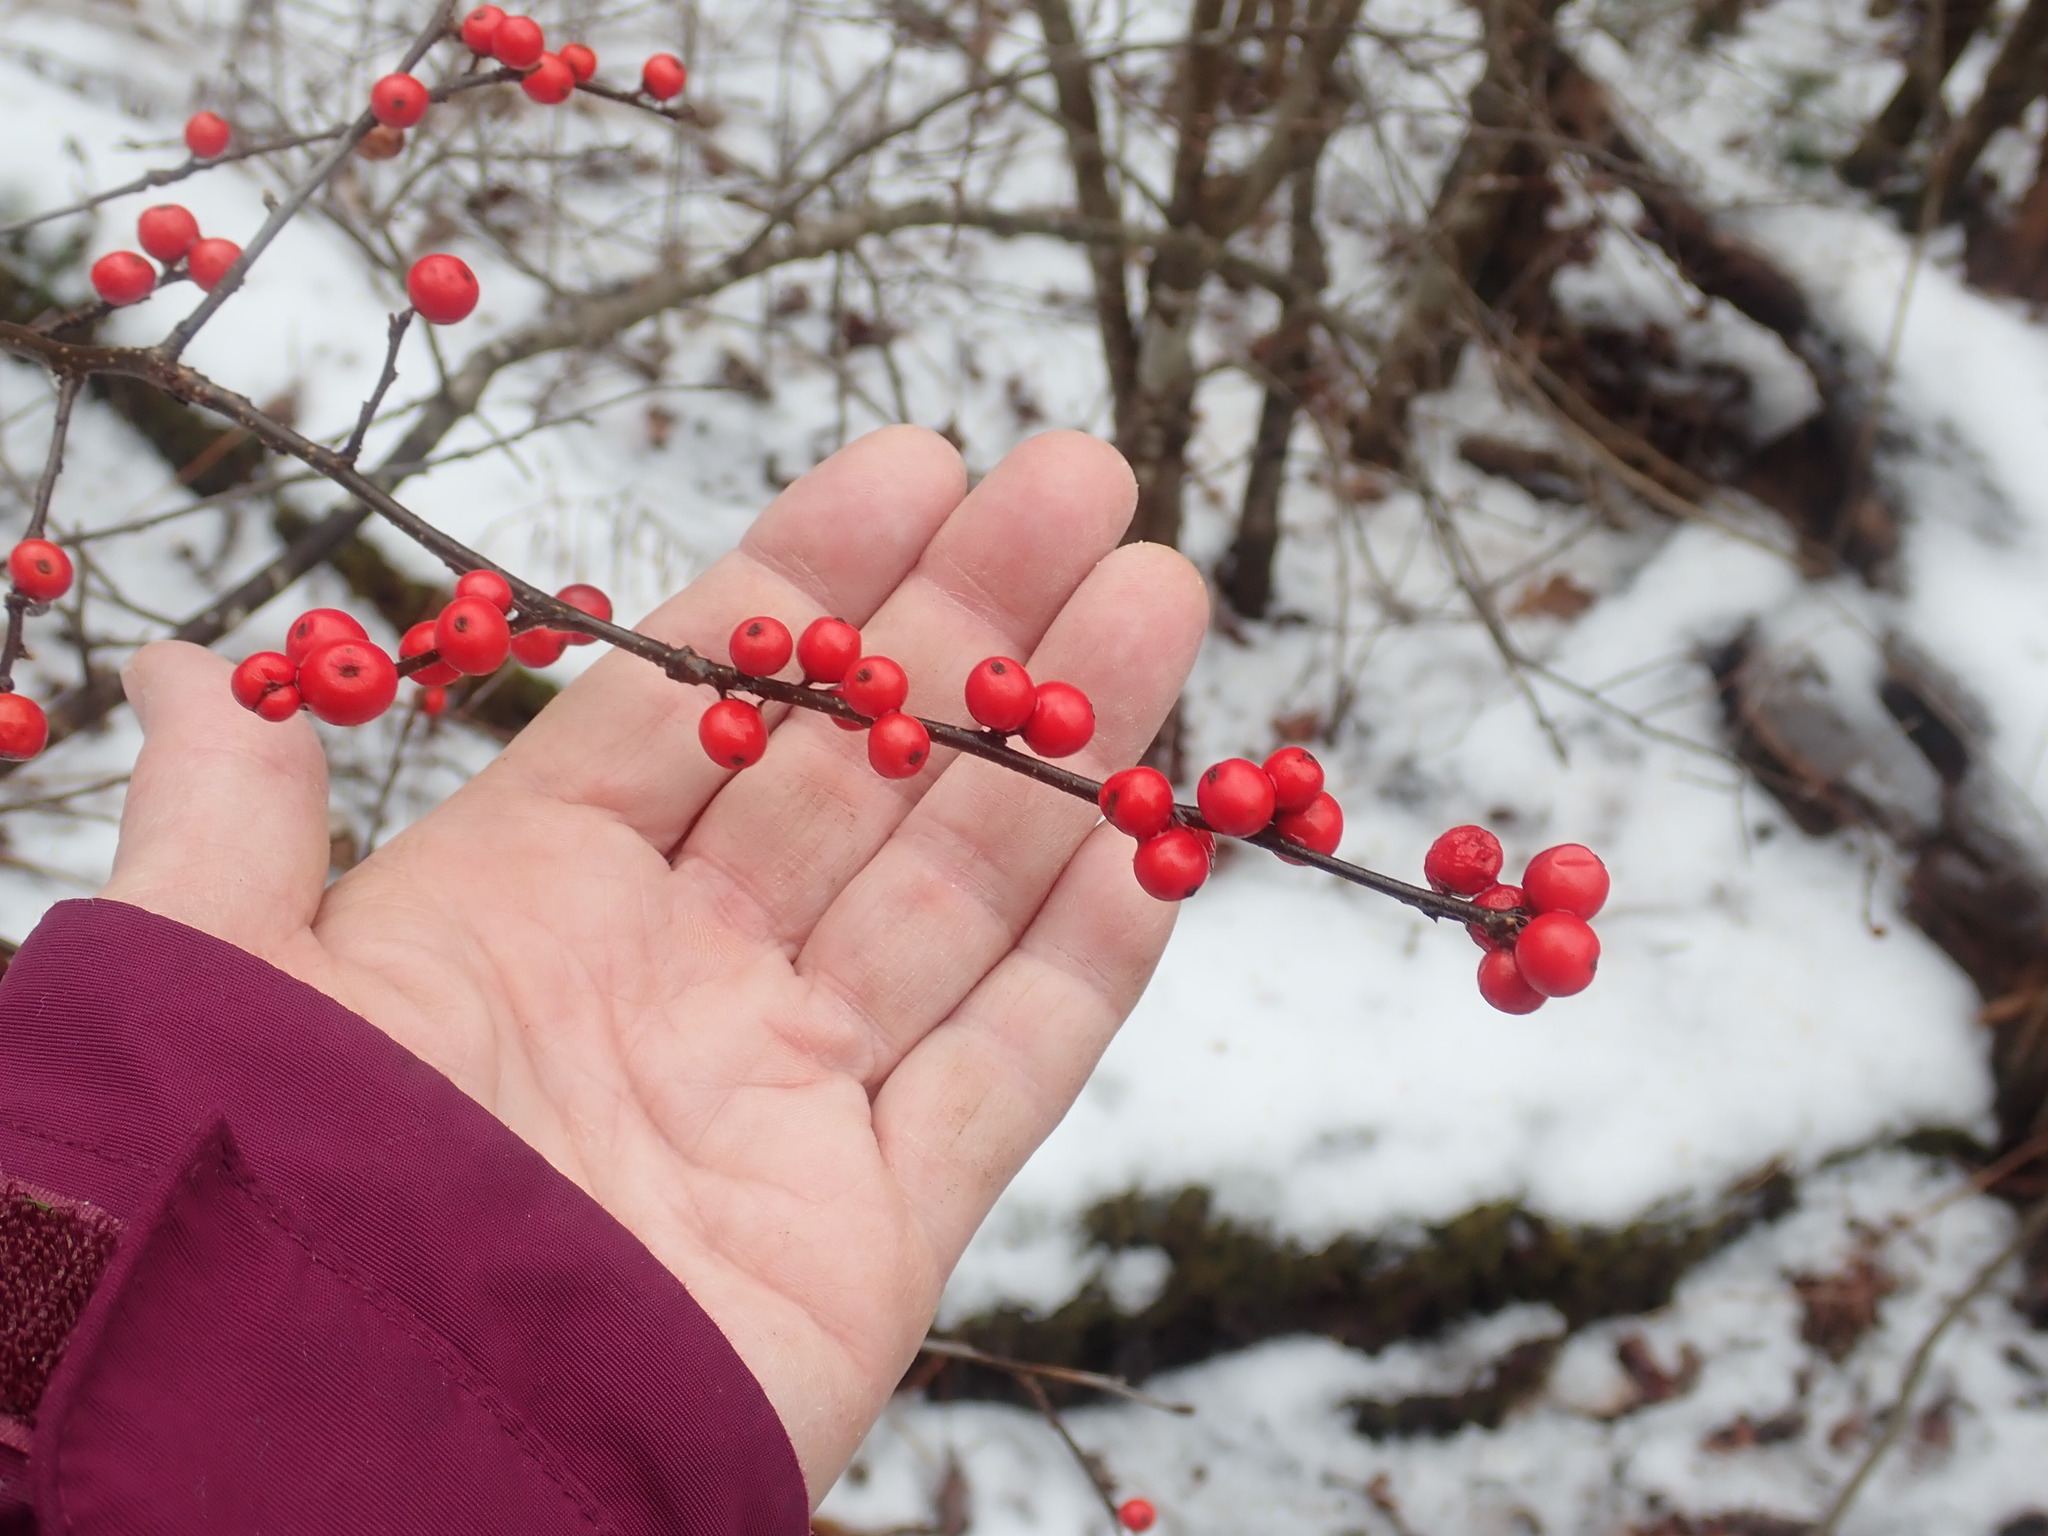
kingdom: Plantae
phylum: Tracheophyta
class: Magnoliopsida
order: Aquifoliales
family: Aquifoliaceae
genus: Ilex
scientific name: Ilex verticillata
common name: Virginia winterberry
